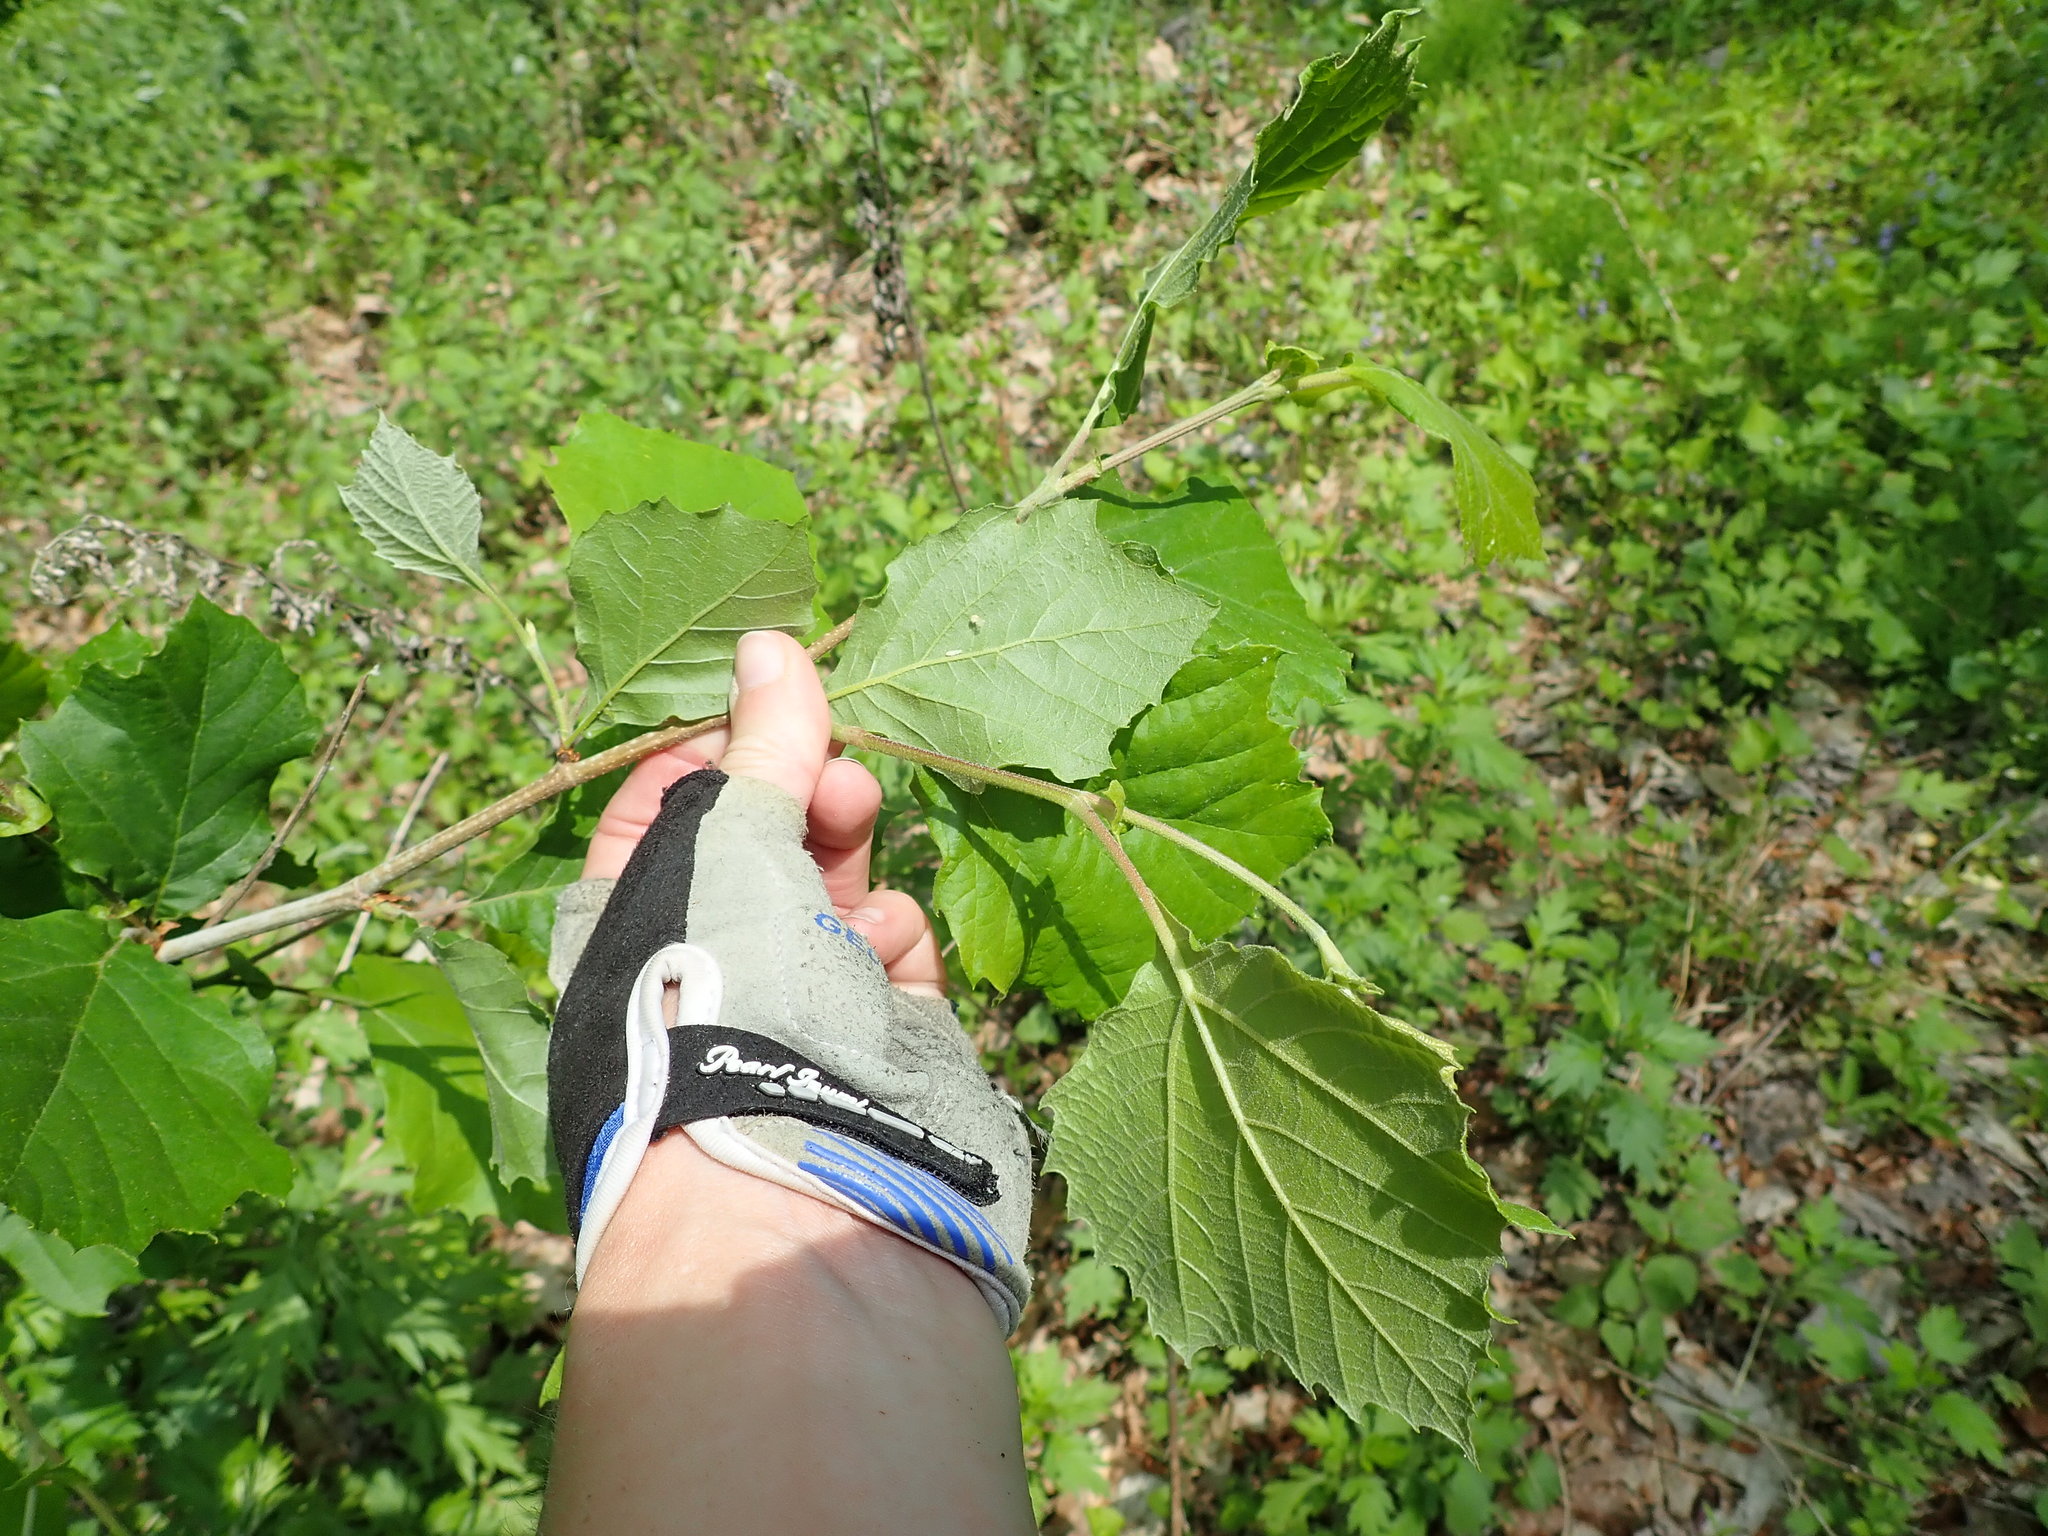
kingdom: Plantae
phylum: Tracheophyta
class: Magnoliopsida
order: Proteales
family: Platanaceae
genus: Platanus
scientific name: Platanus occidentalis
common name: American sycamore
